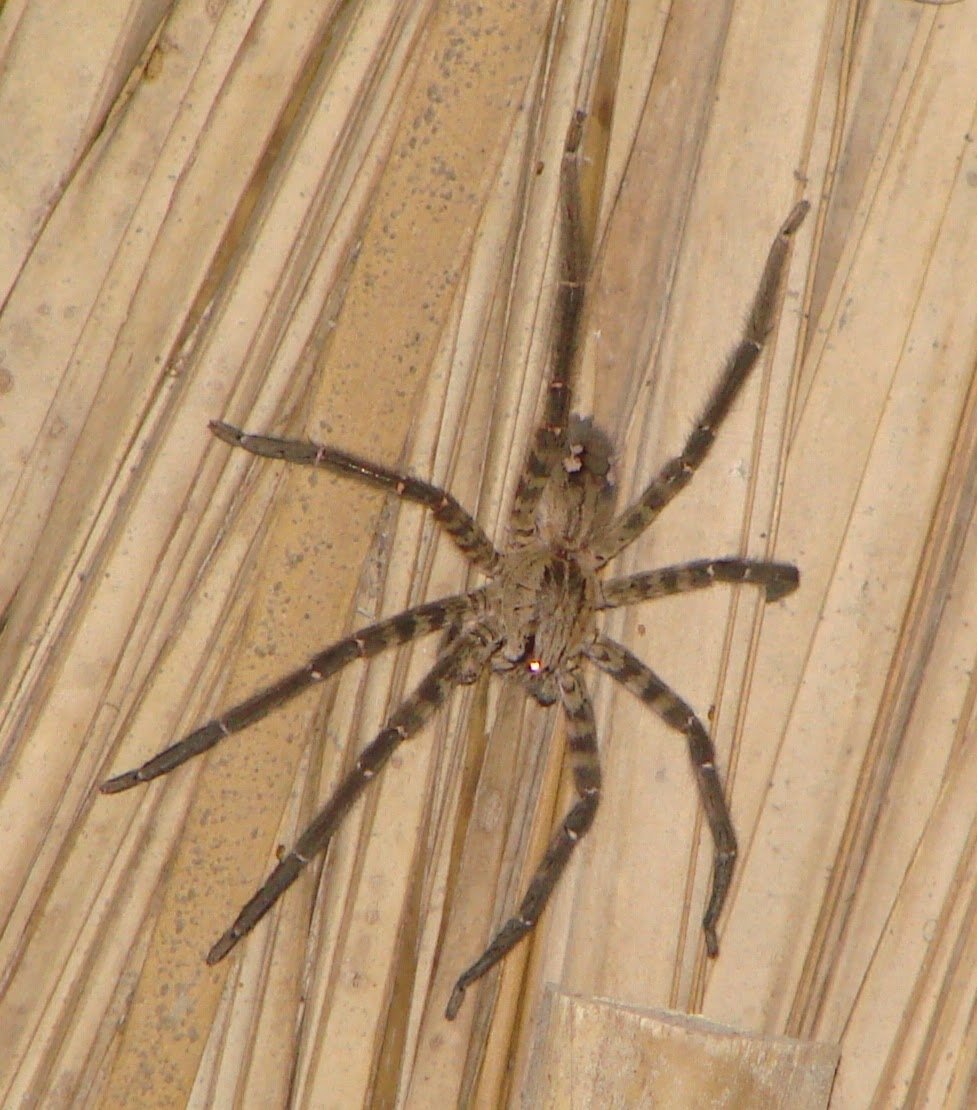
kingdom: Animalia
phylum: Arthropoda
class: Arachnida
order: Araneae
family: Trechaleidae
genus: Cupiennius
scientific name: Cupiennius salei
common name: Wandering spiders
